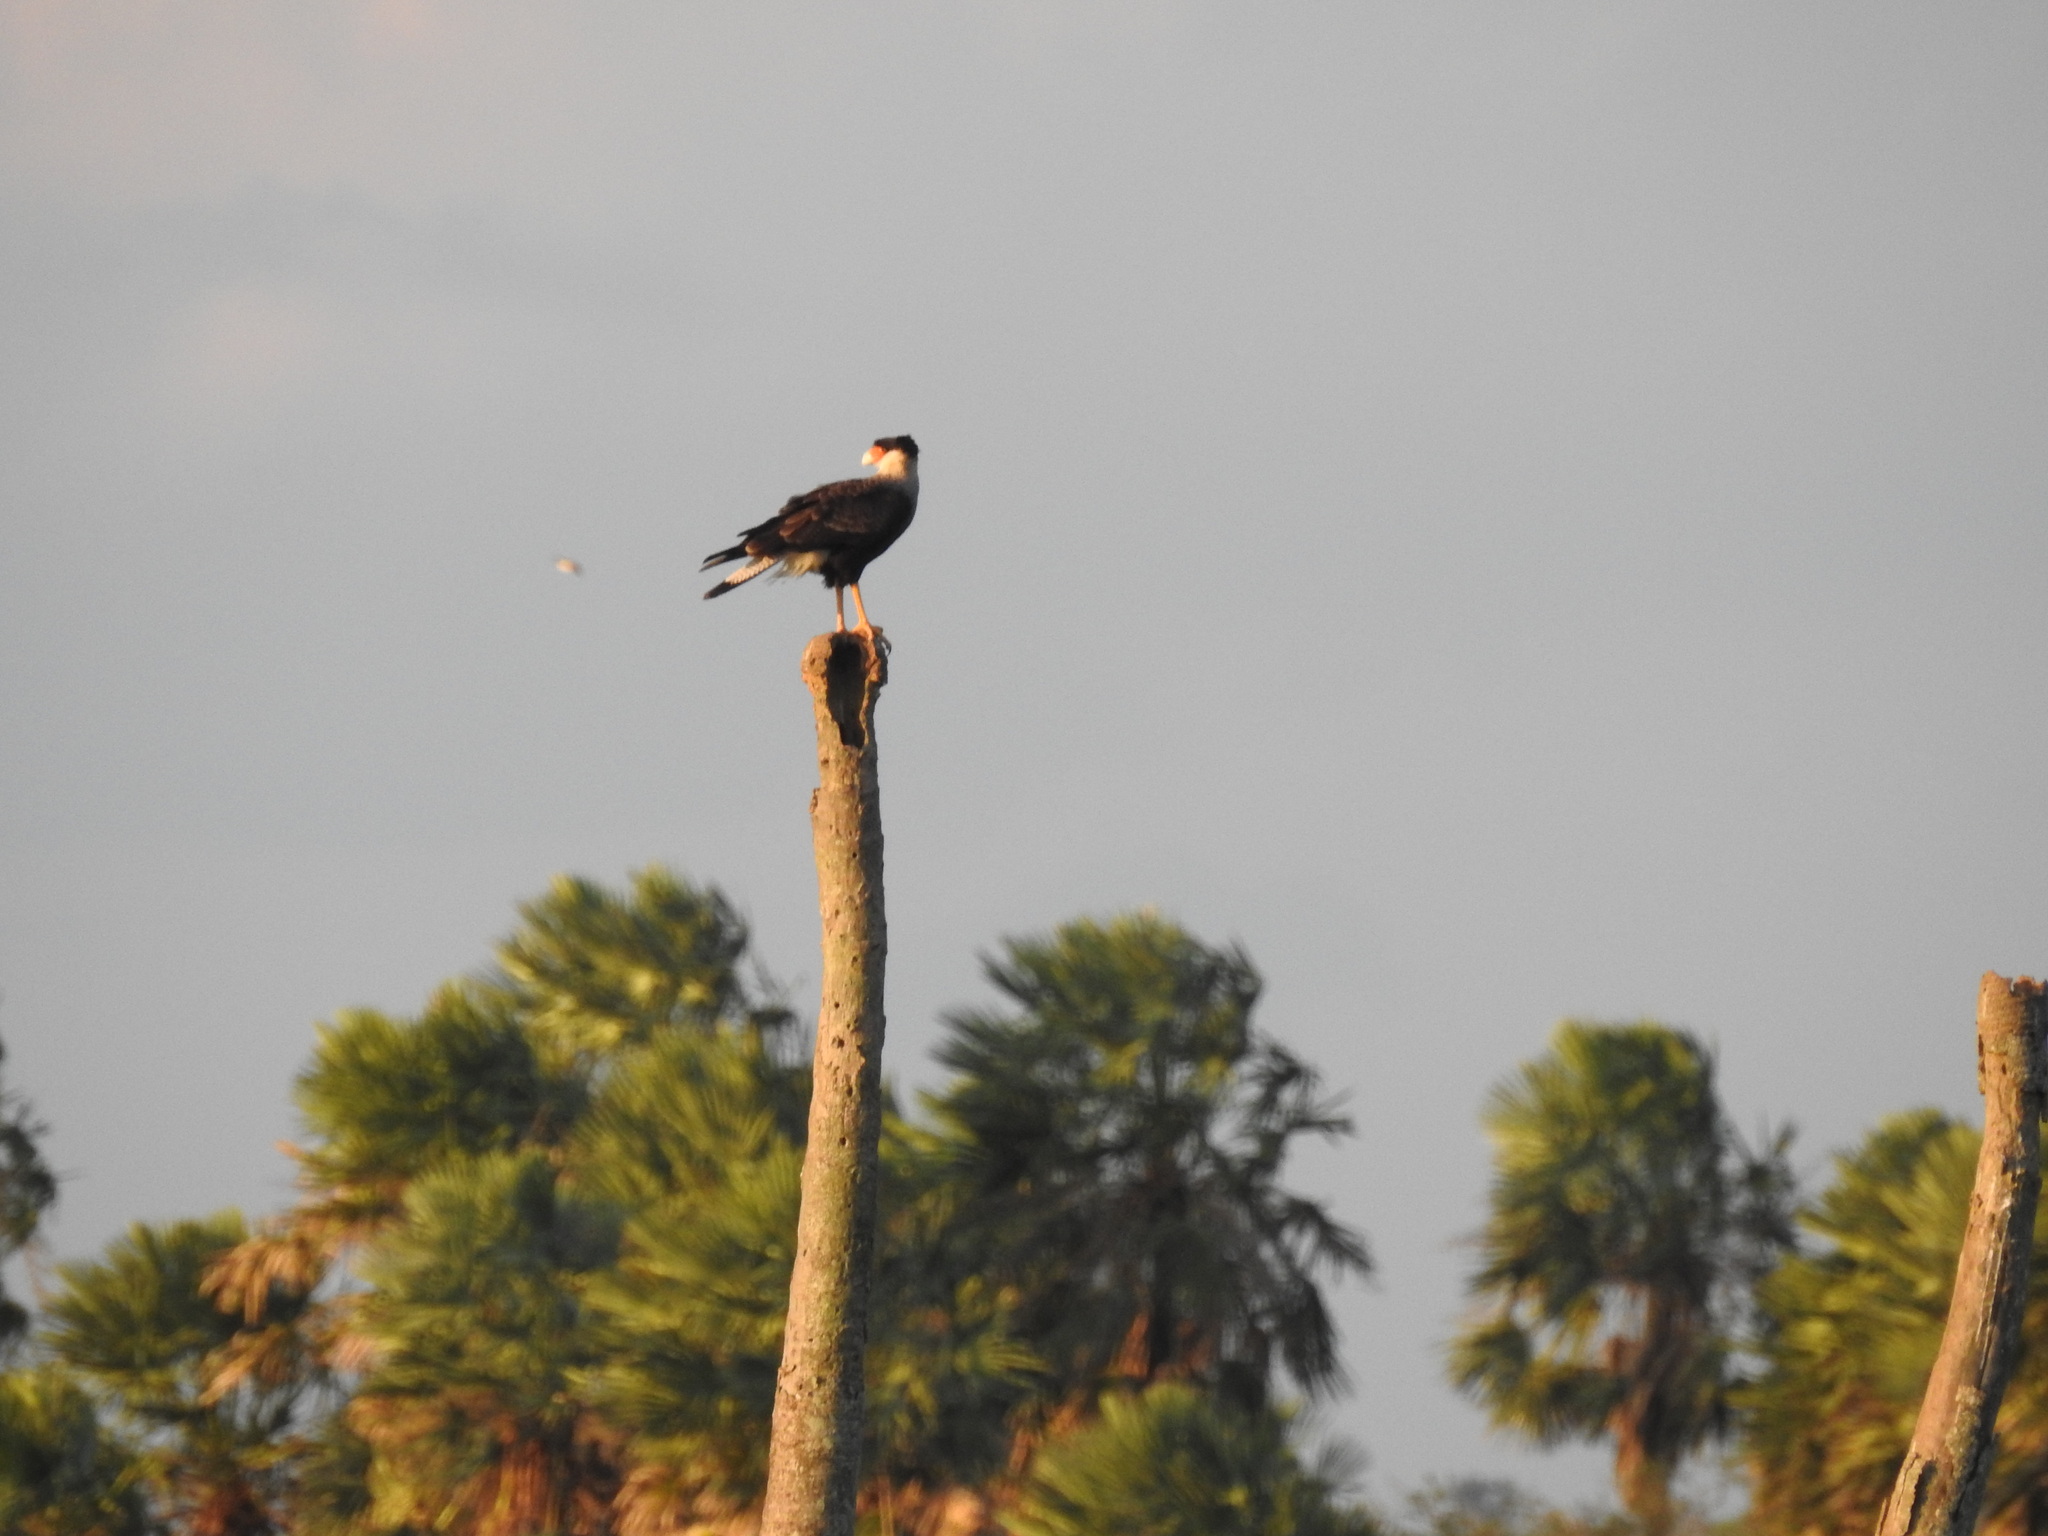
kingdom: Animalia
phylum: Chordata
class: Aves
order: Falconiformes
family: Falconidae
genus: Caracara
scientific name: Caracara plancus
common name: Southern caracara
